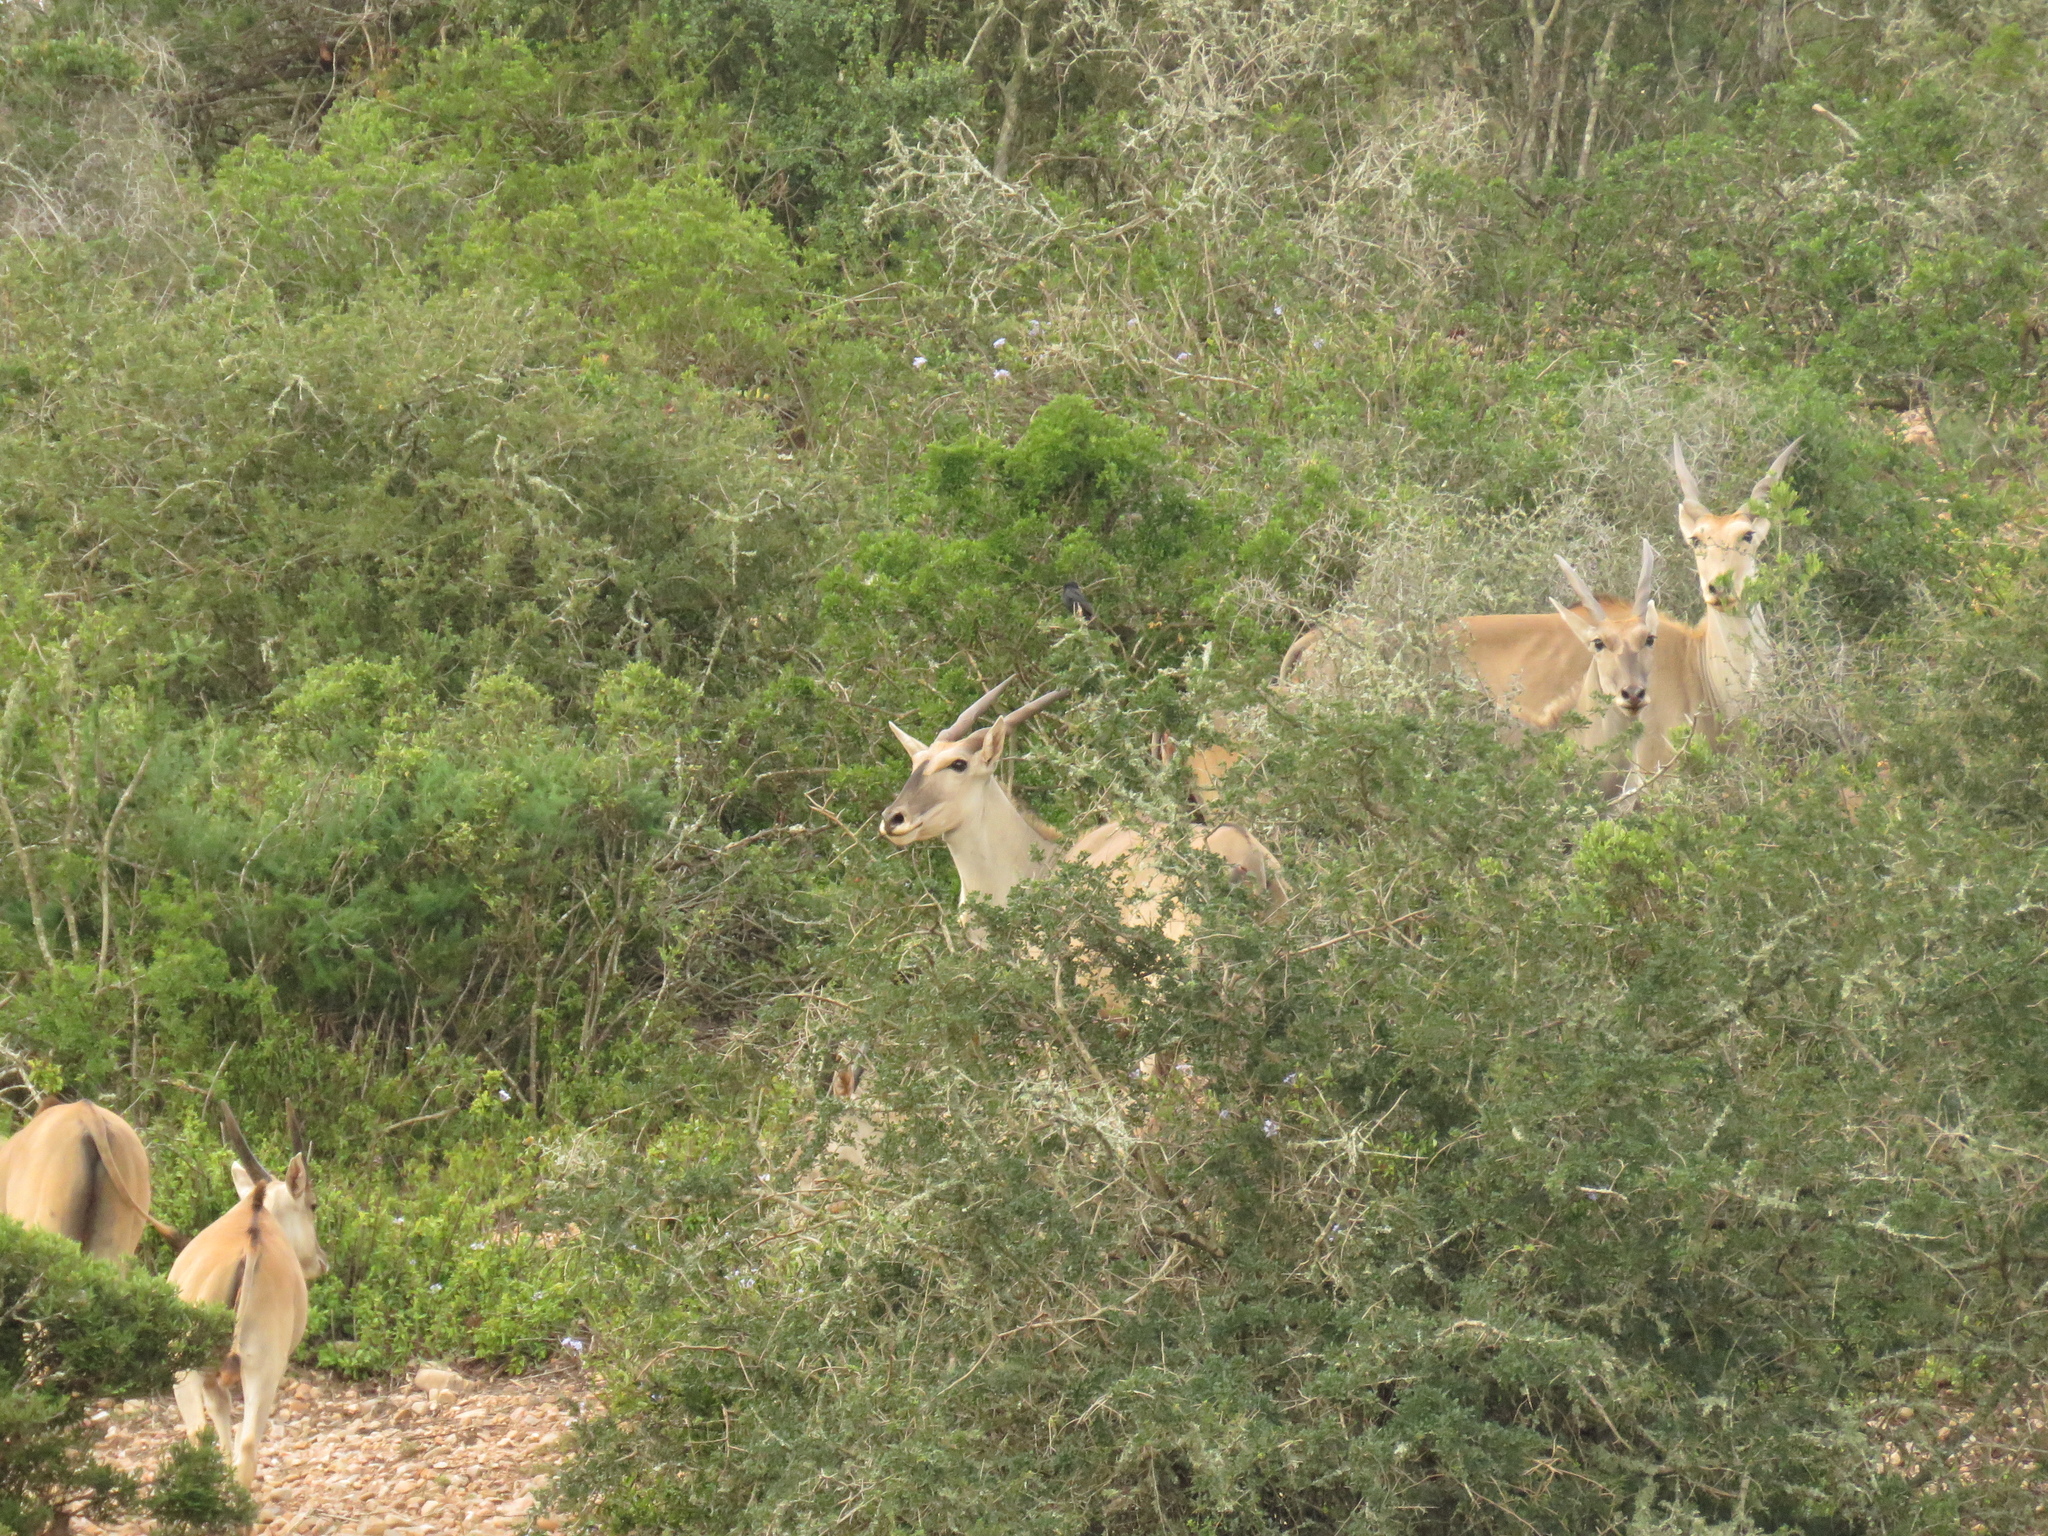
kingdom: Animalia
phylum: Chordata
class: Mammalia
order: Artiodactyla
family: Bovidae
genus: Taurotragus
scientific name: Taurotragus oryx
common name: Common eland
